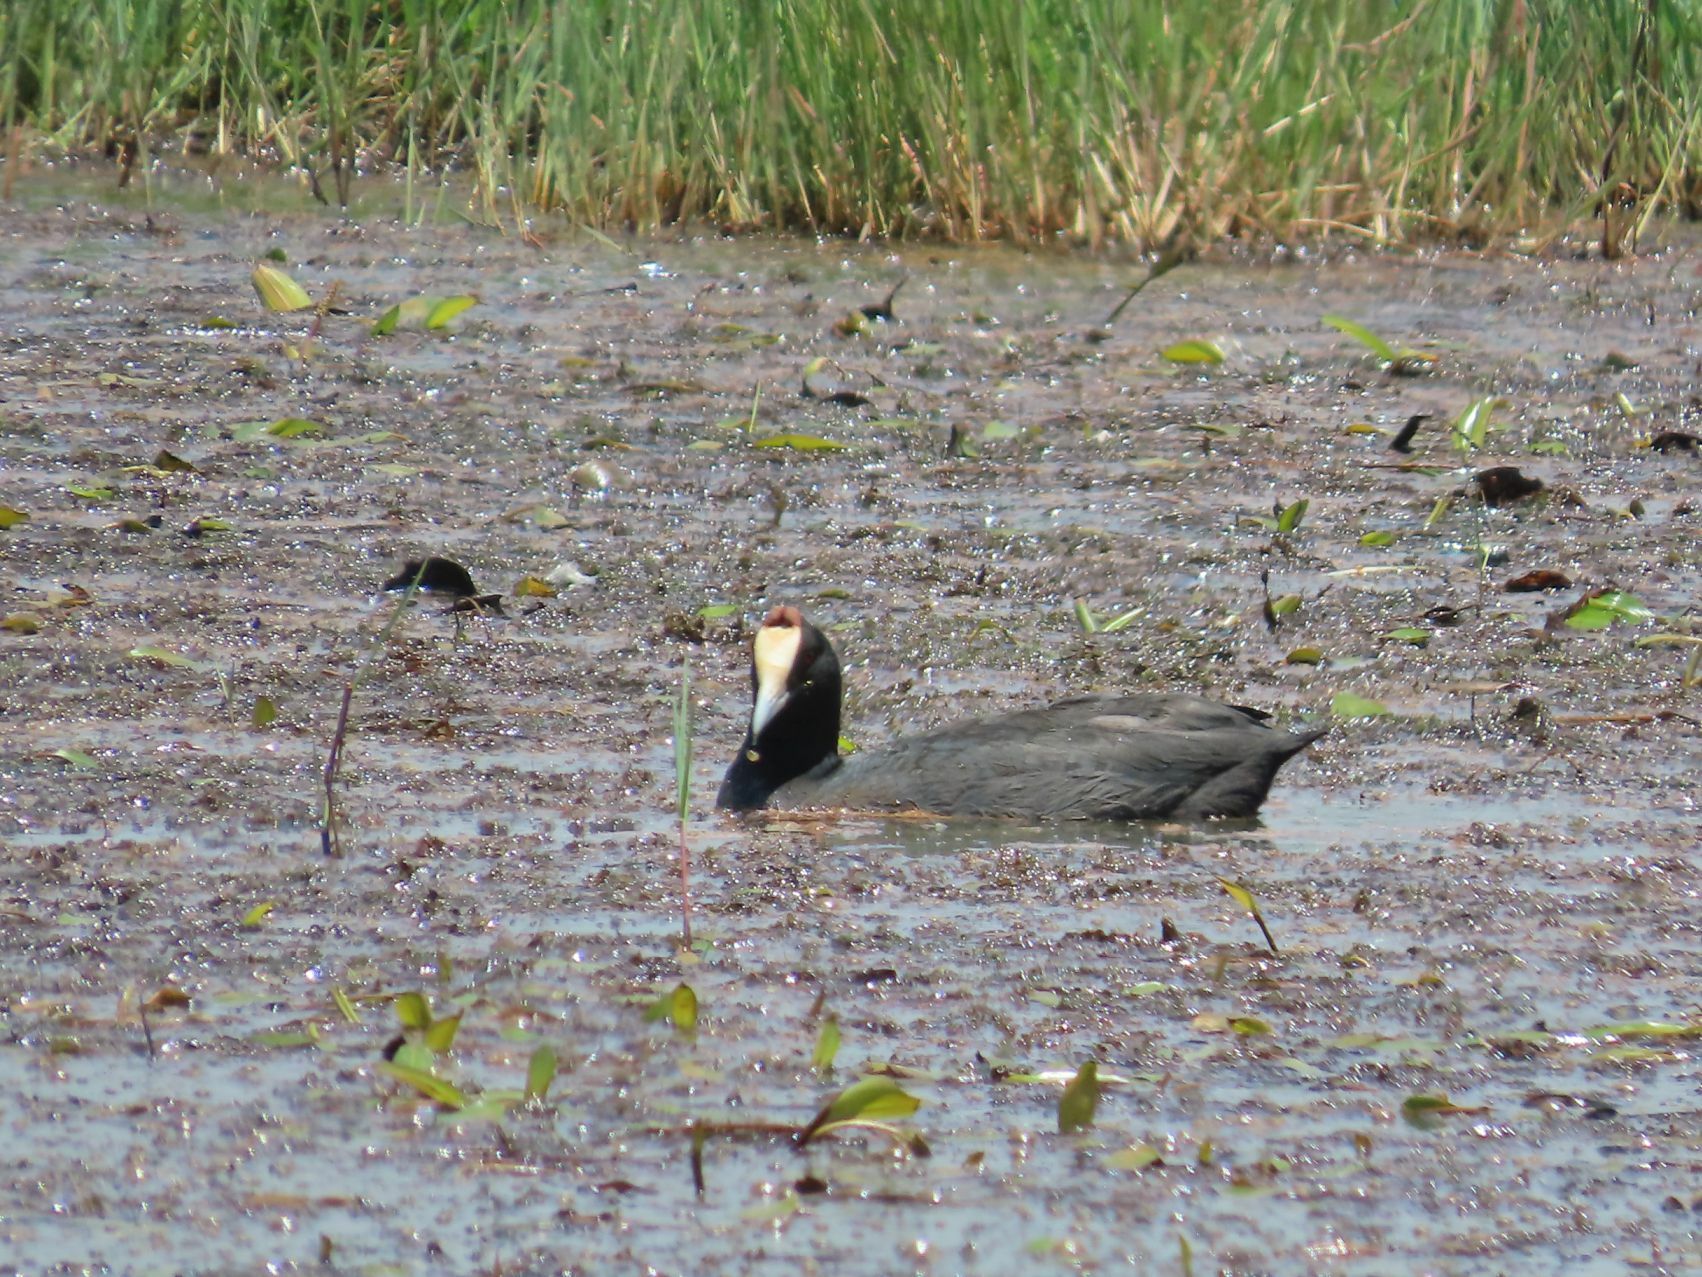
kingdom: Animalia
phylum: Chordata
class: Aves
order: Gruiformes
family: Rallidae
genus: Fulica
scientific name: Fulica cristata
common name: Red-knobbed coot
